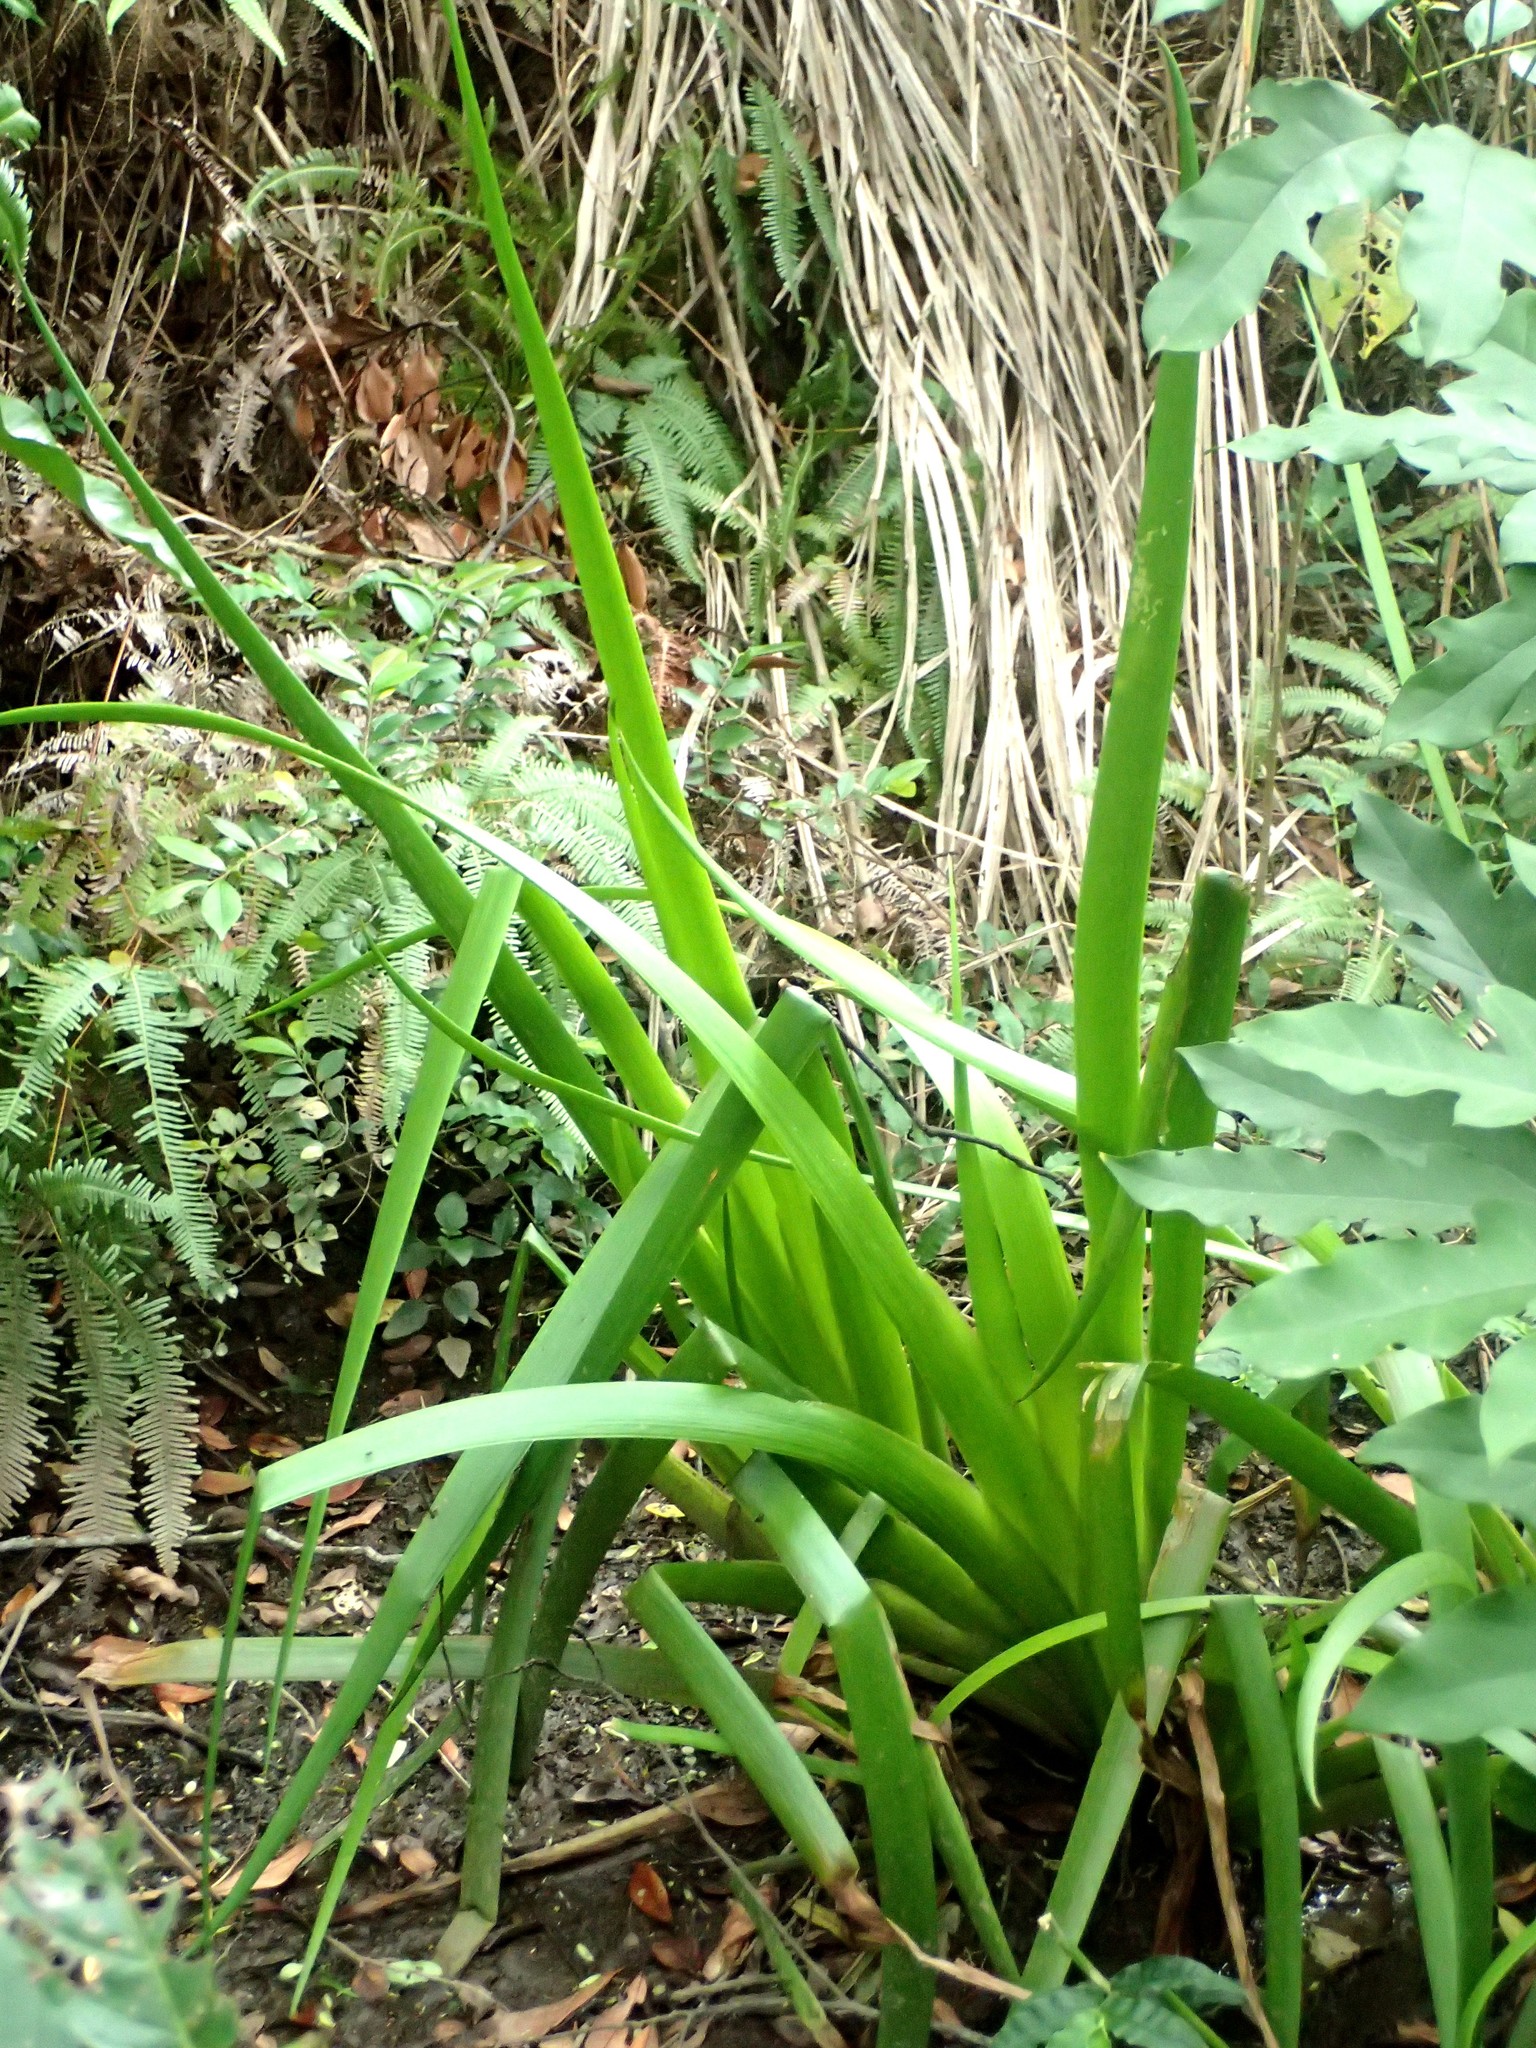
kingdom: Plantae
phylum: Tracheophyta
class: Liliopsida
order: Commelinales
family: Philydraceae
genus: Philydrum
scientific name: Philydrum lanuginosum
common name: Woolly frog's mouth
